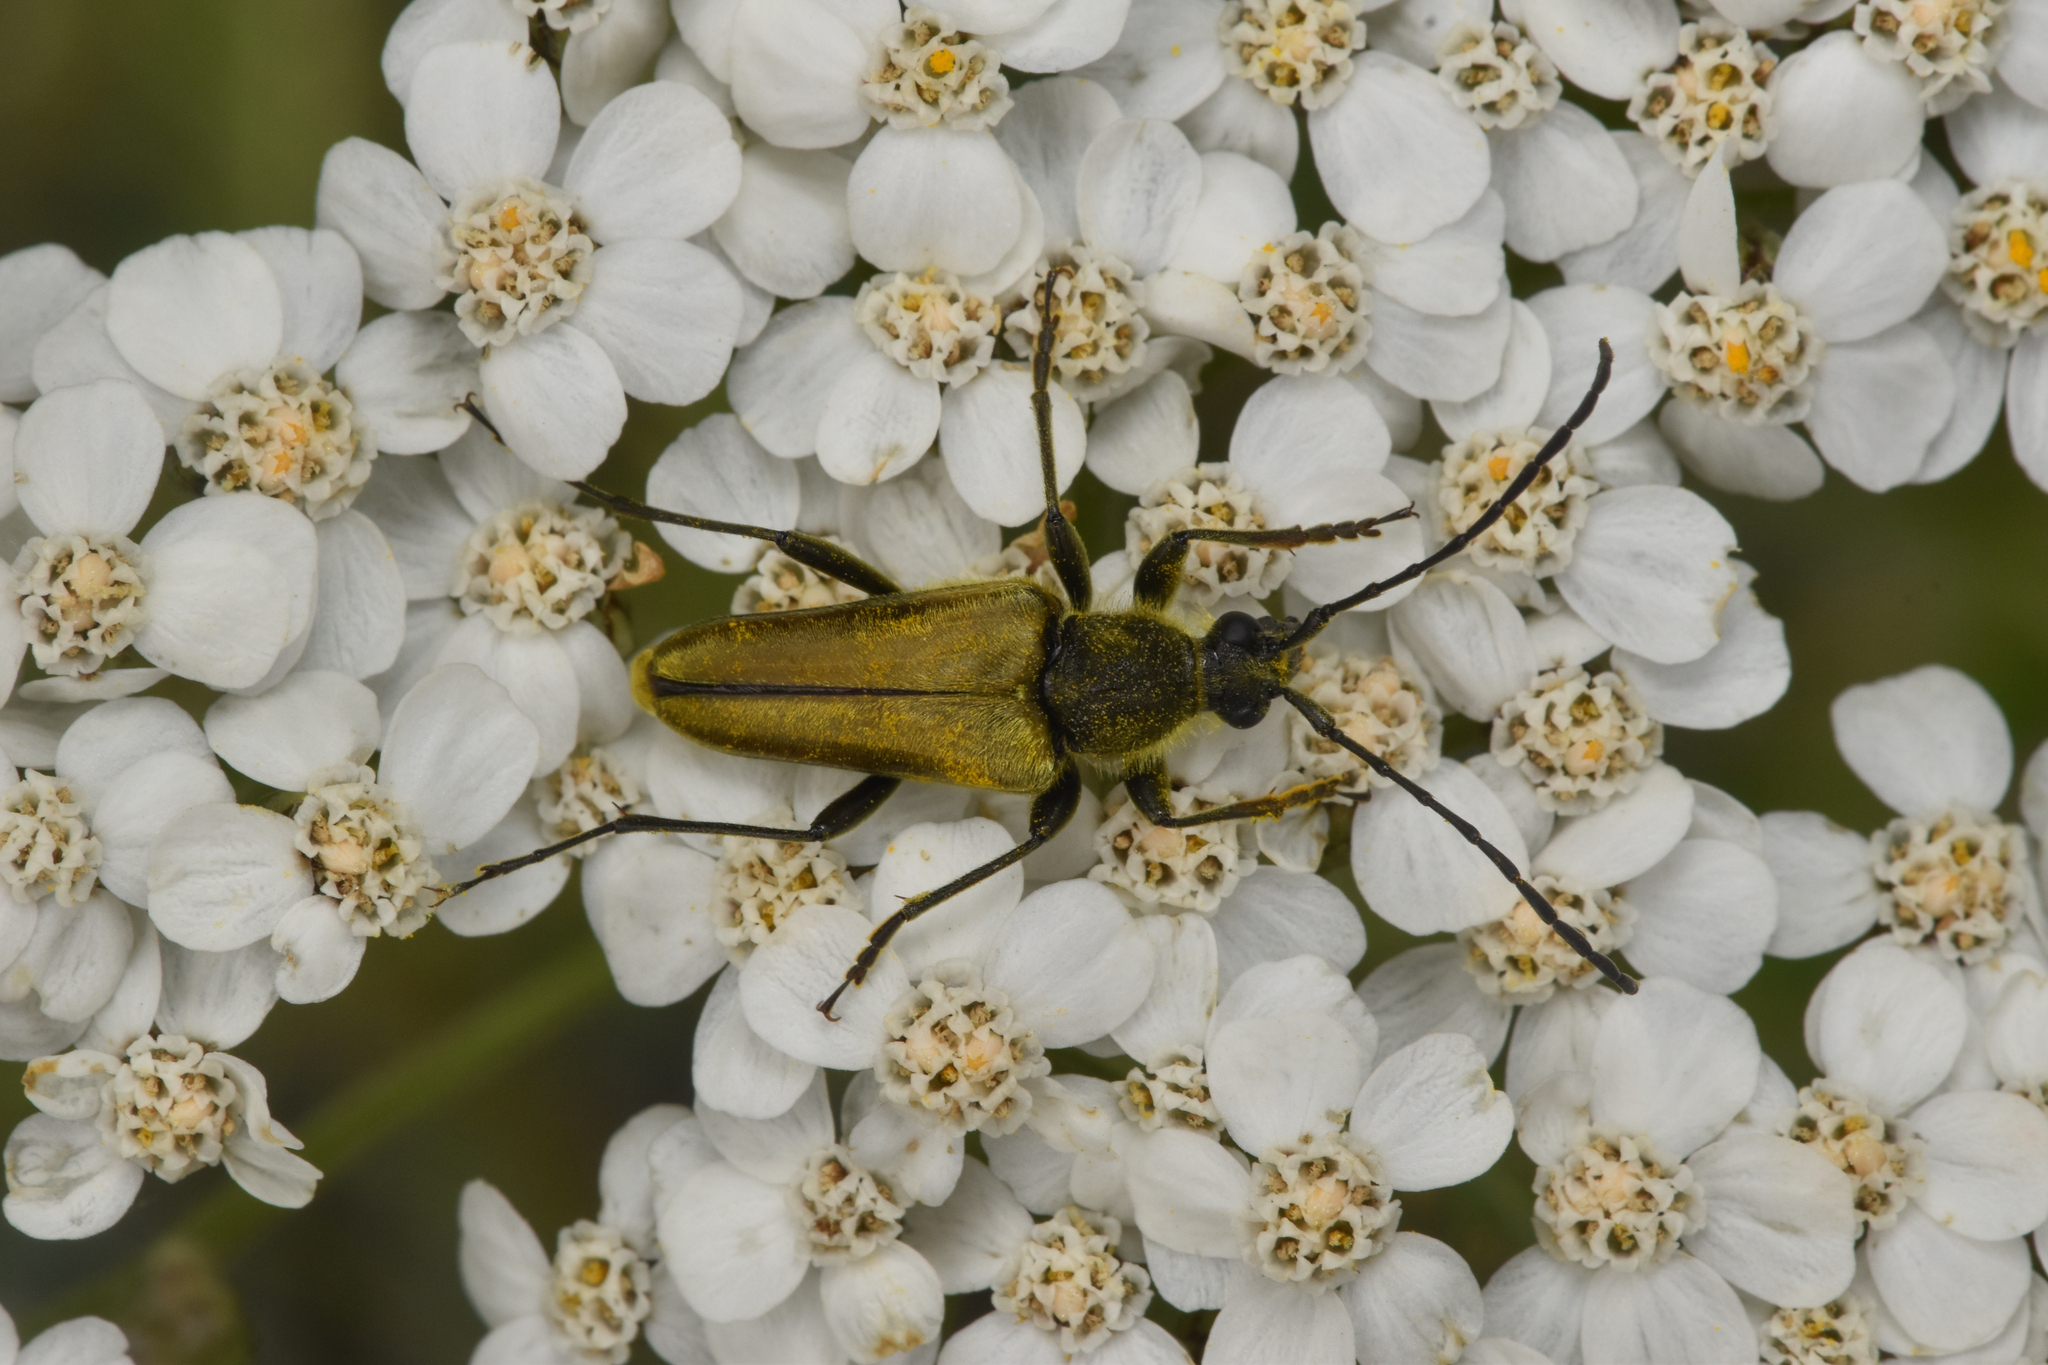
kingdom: Animalia
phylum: Arthropoda
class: Insecta
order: Coleoptera
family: Cerambycidae
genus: Cosmosalia
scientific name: Cosmosalia chrysocoma
